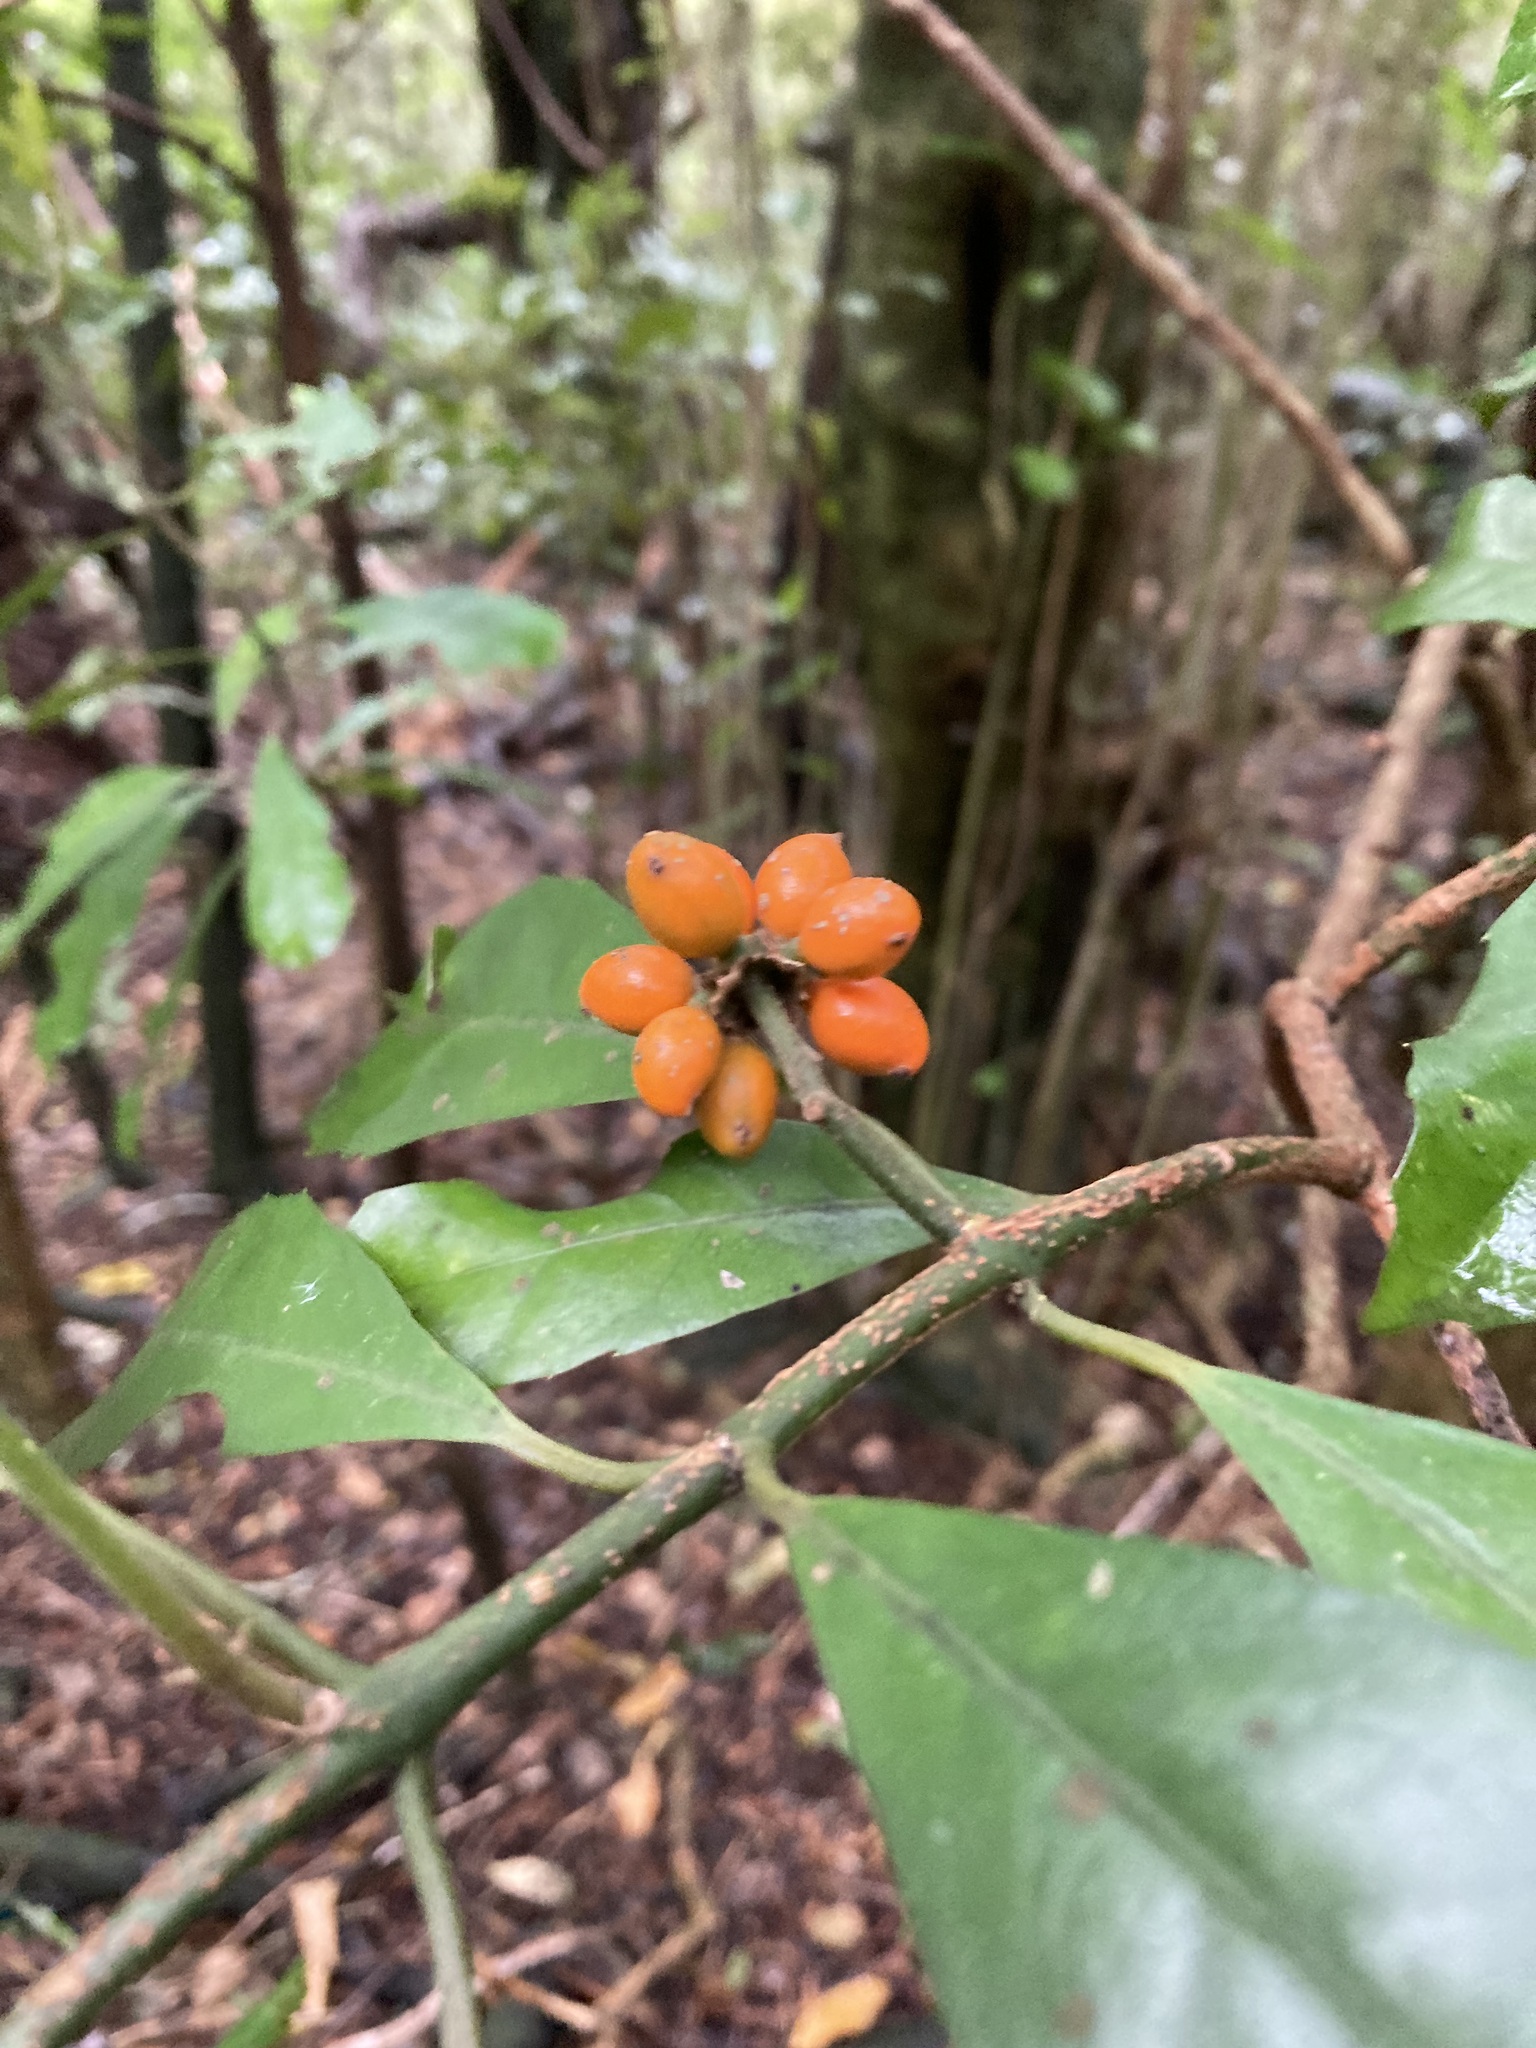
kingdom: Plantae
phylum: Tracheophyta
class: Magnoliopsida
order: Laurales
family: Monimiaceae
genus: Hedycarya
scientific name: Hedycarya arborea
